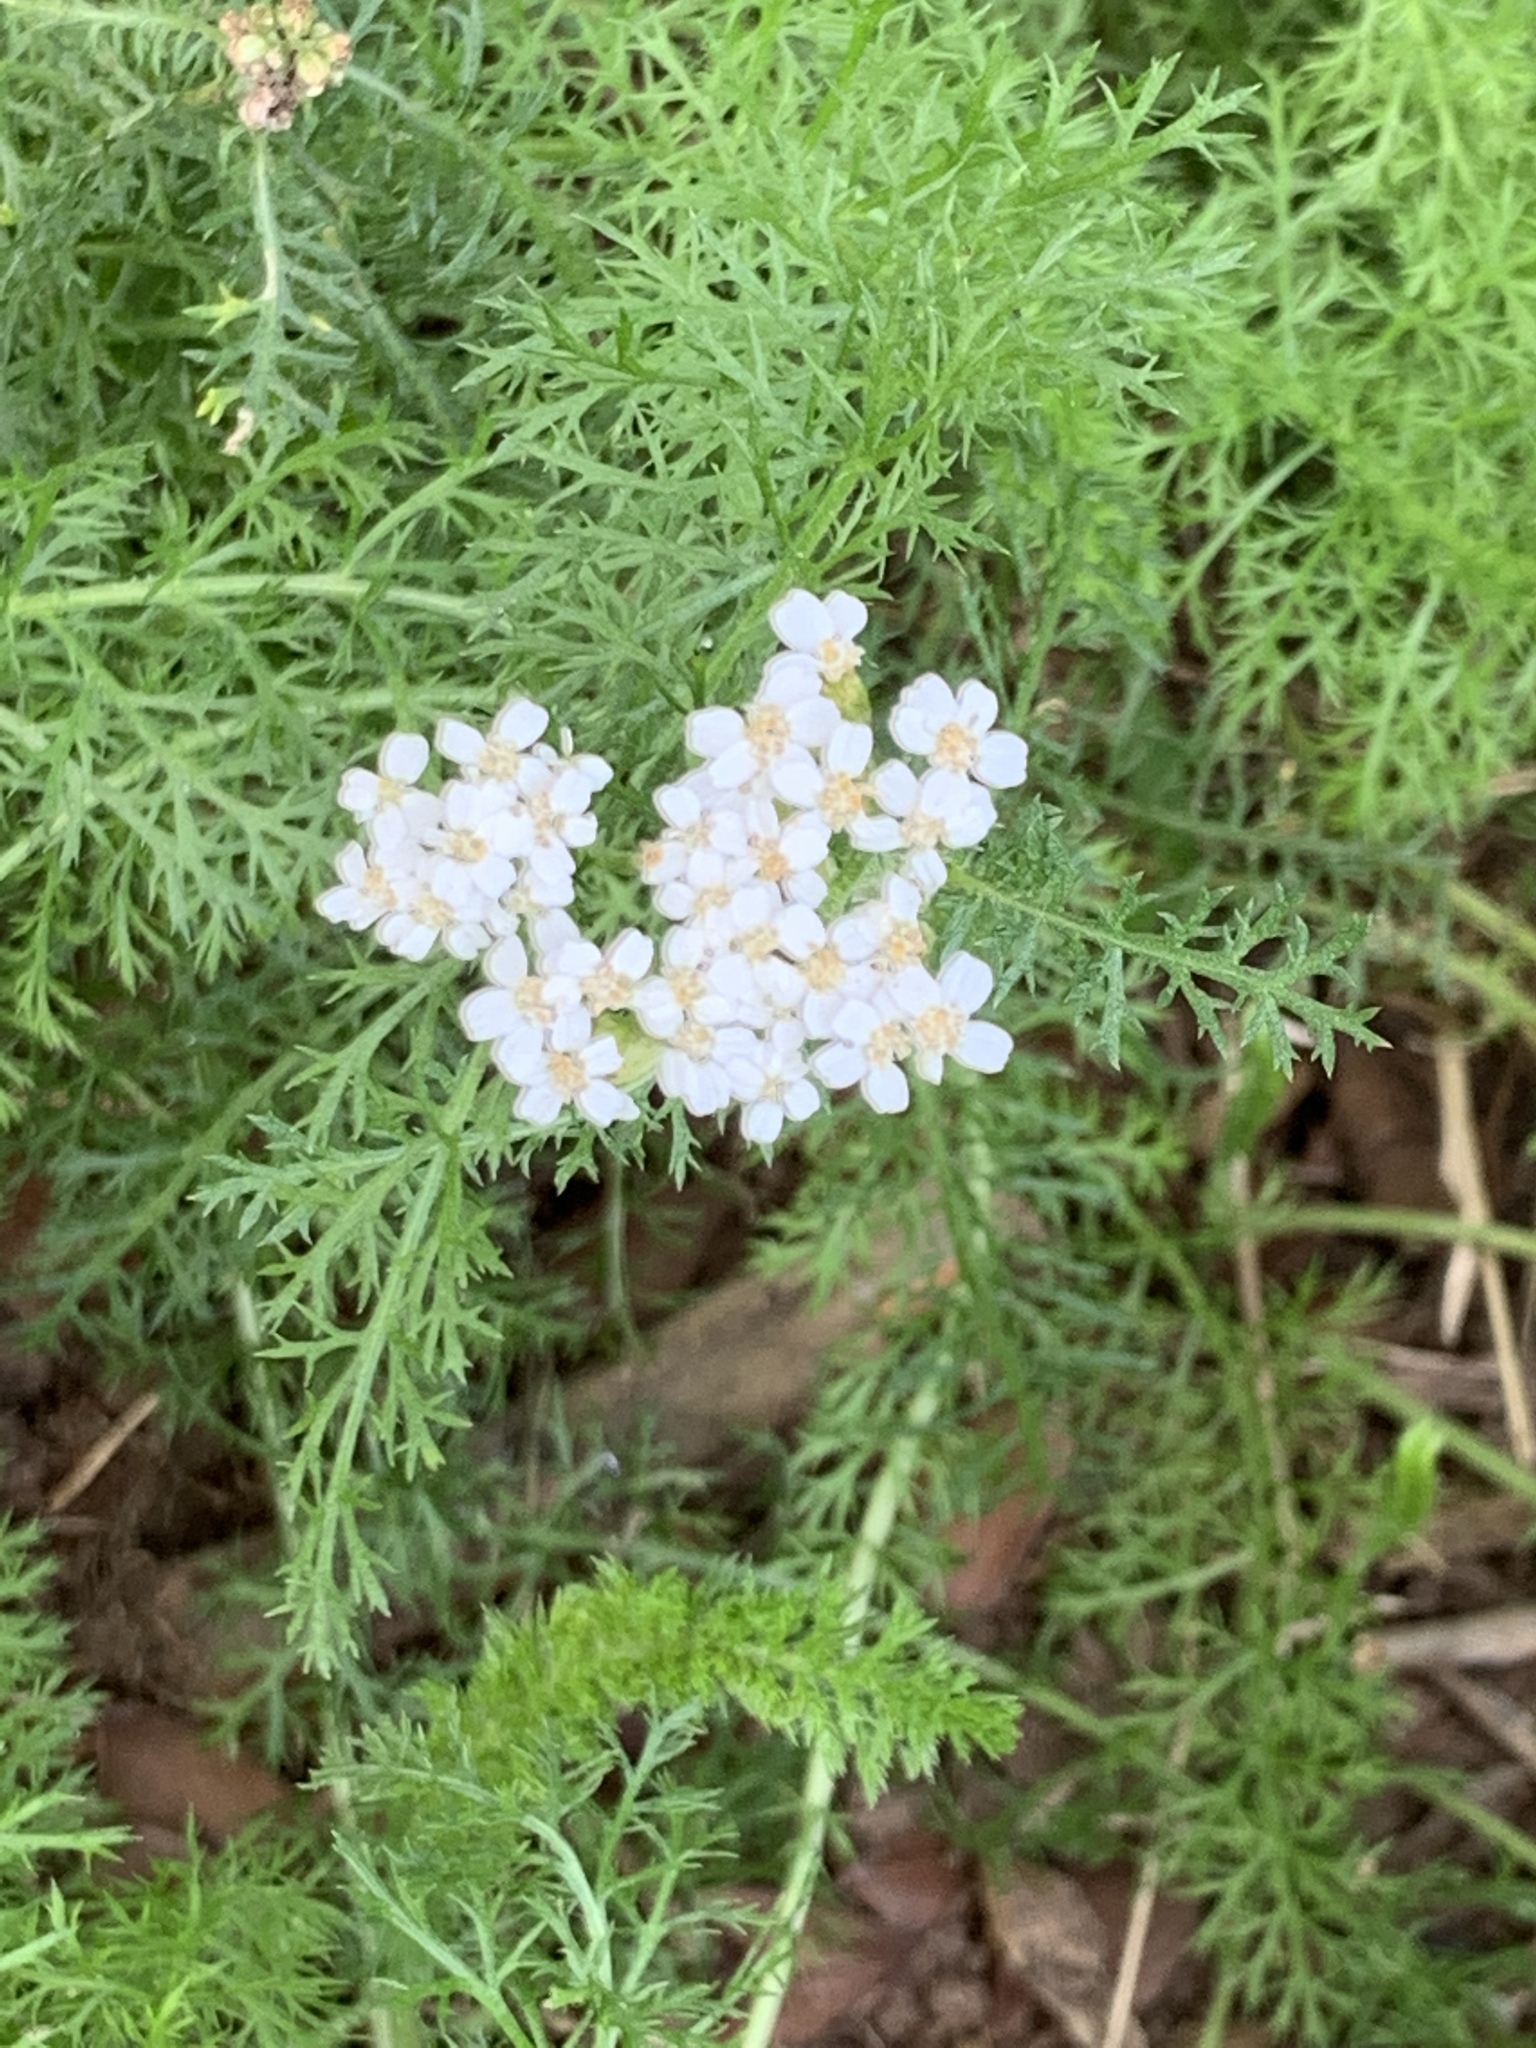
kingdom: Plantae
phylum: Tracheophyta
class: Magnoliopsida
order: Asterales
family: Asteraceae
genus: Achillea
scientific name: Achillea millefolium
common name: Yarrow
